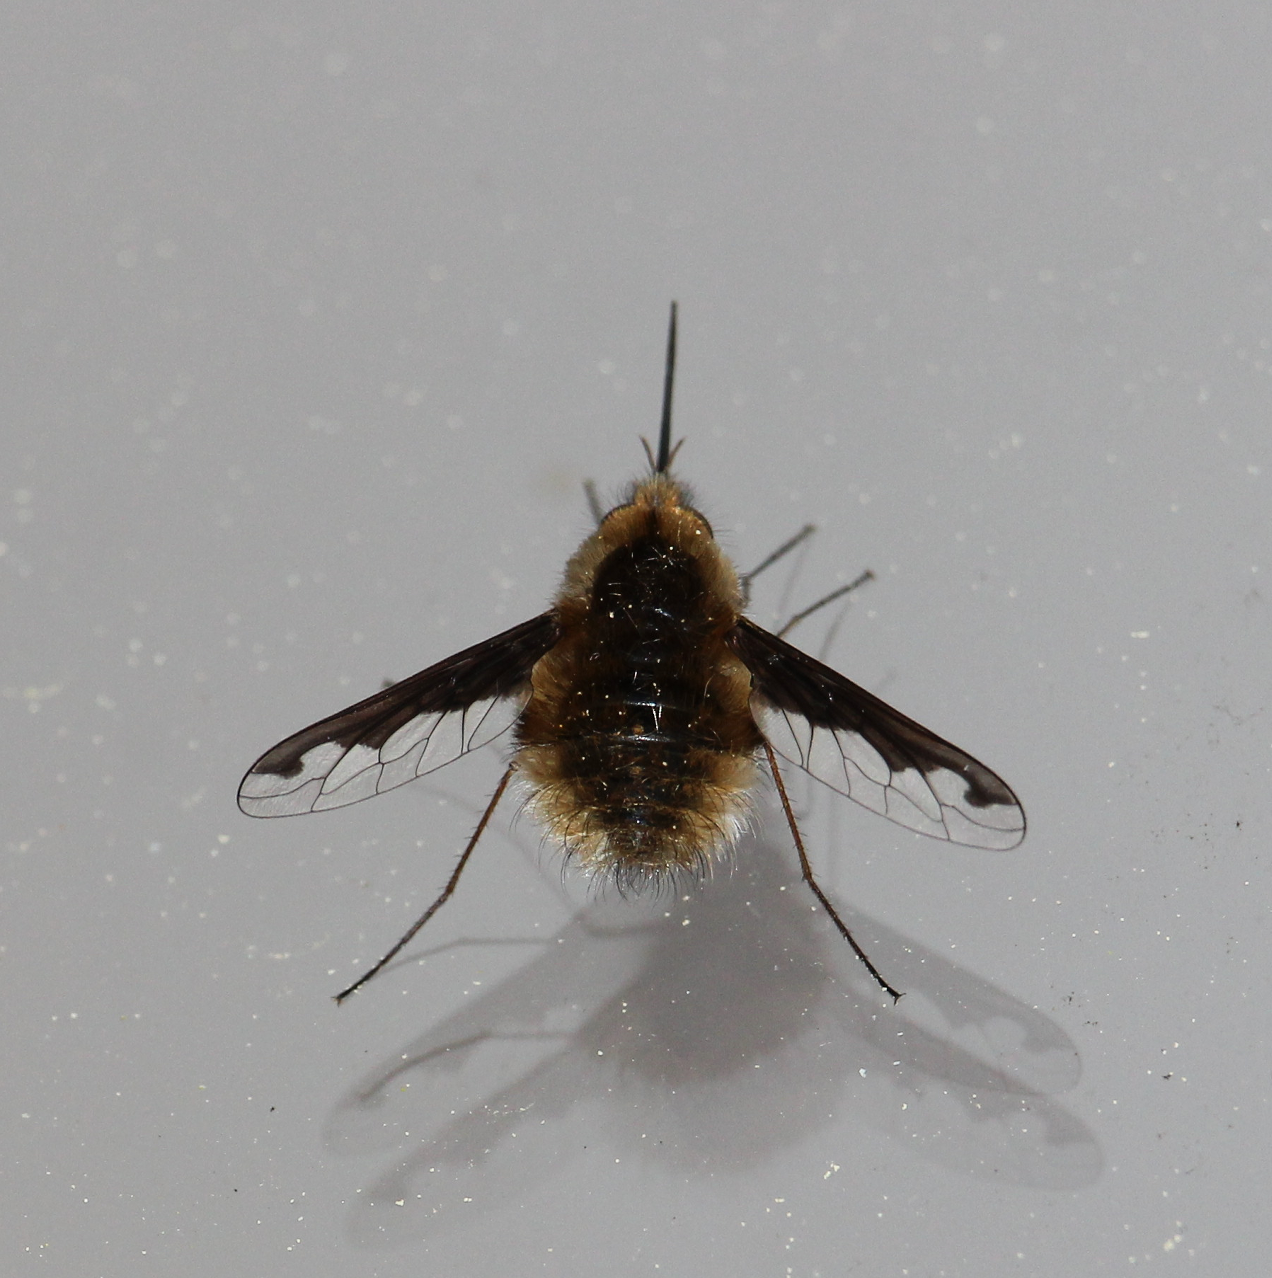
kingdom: Animalia
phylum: Arthropoda
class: Insecta
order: Diptera
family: Bombyliidae
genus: Bombylius
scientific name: Bombylius major
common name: Bee fly
